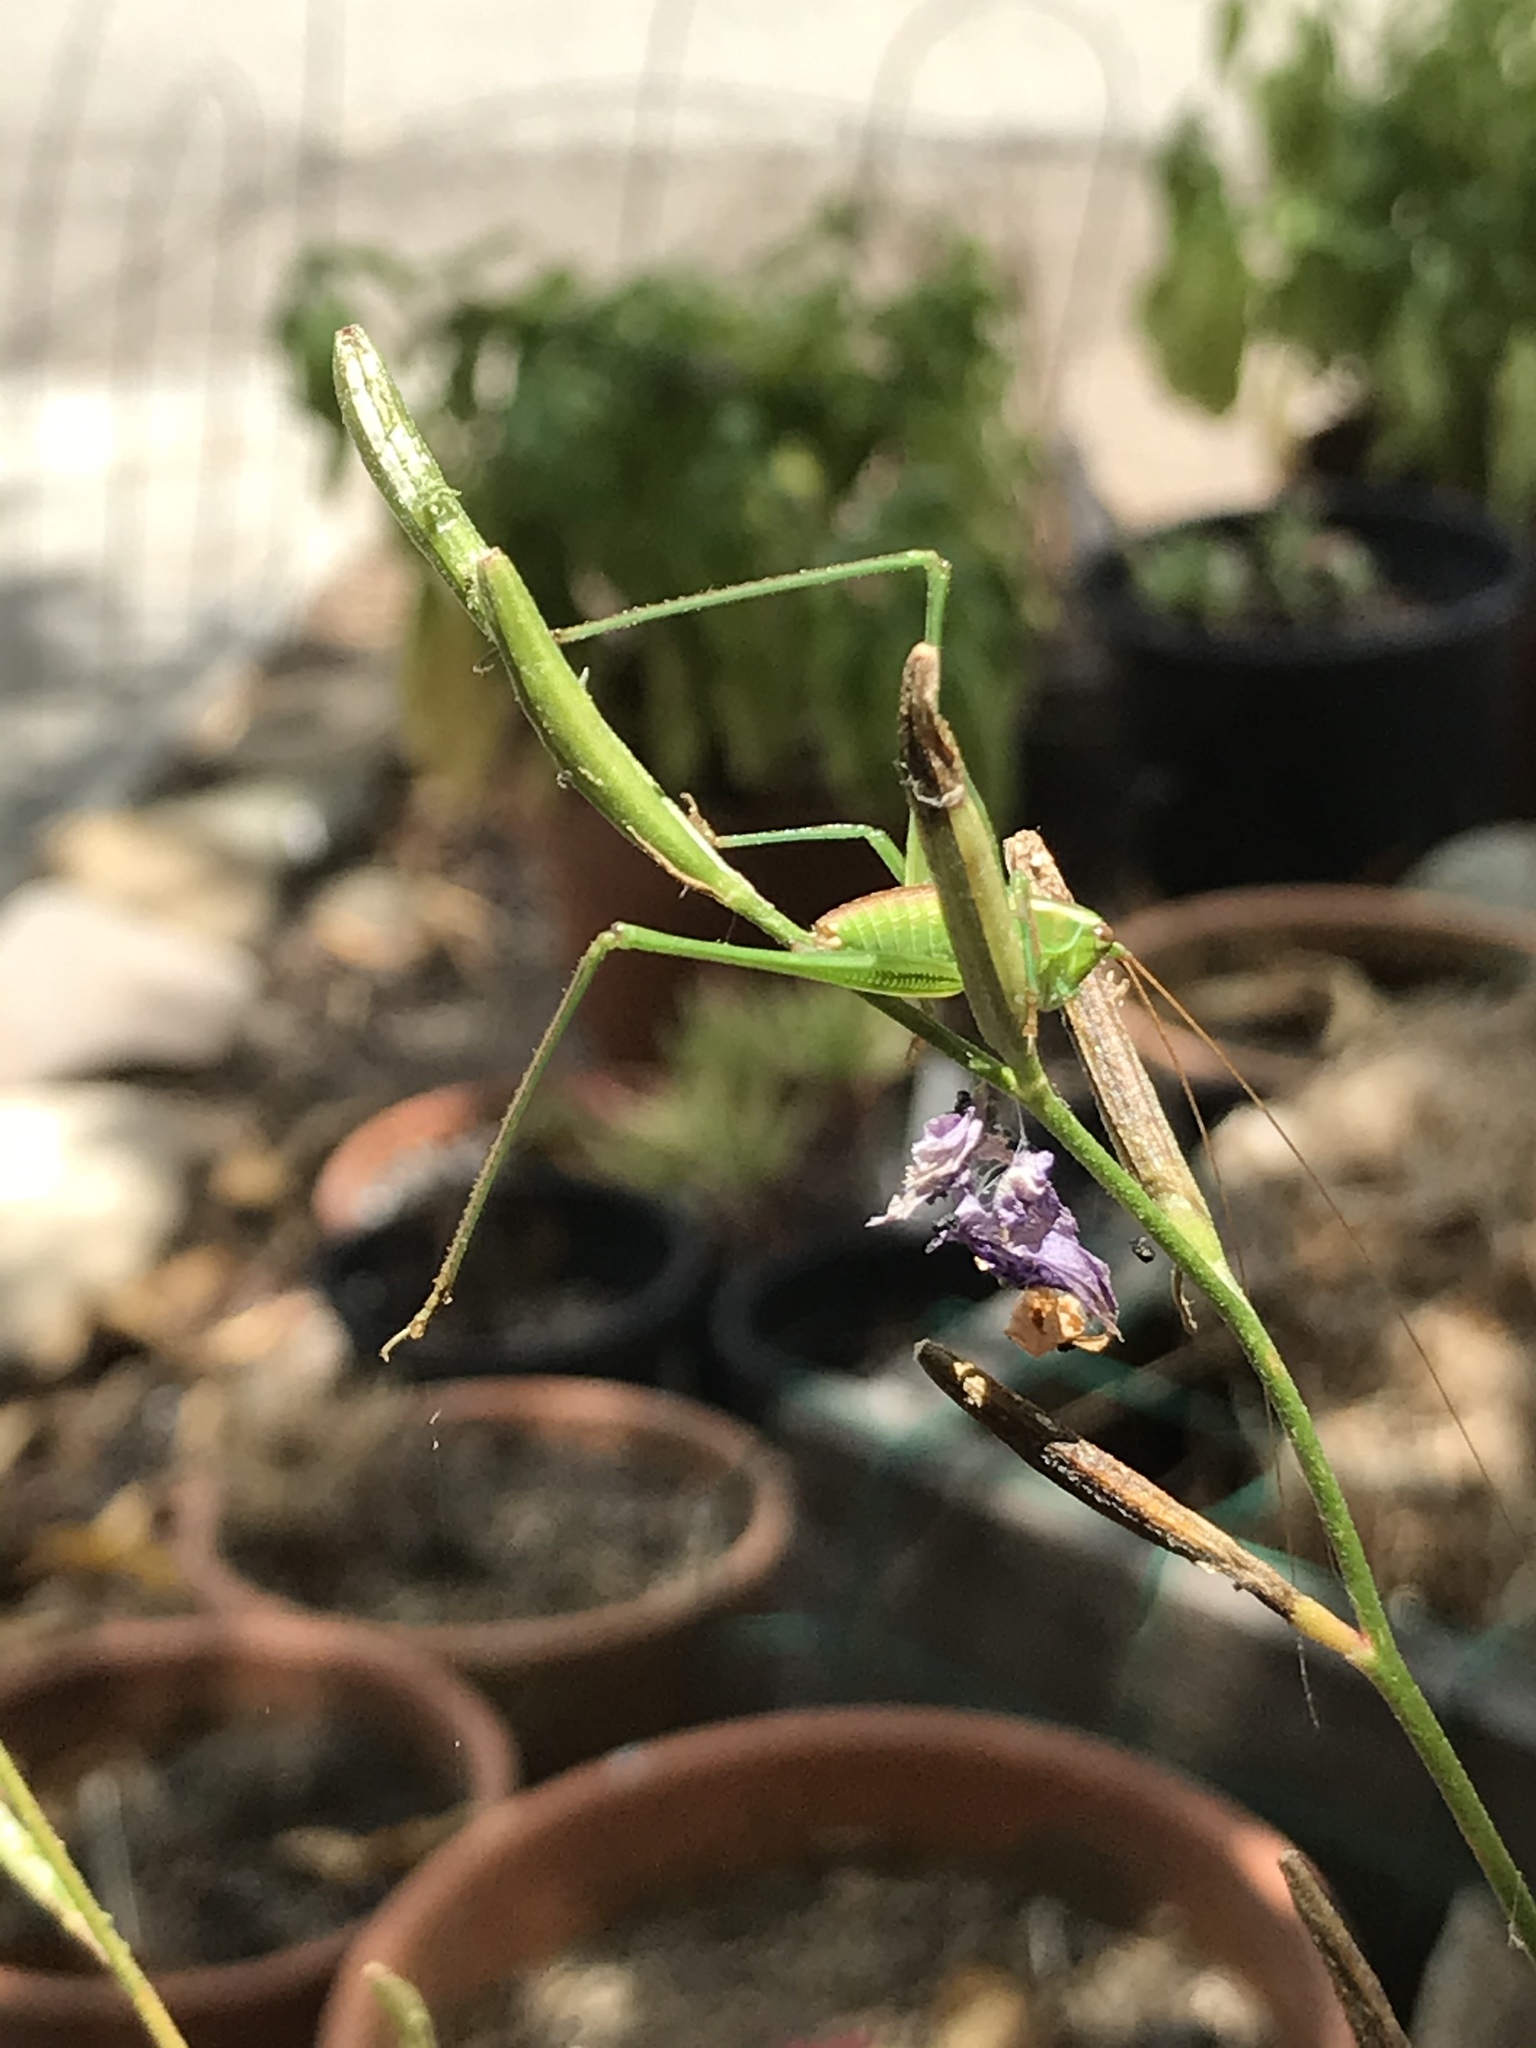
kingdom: Animalia
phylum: Arthropoda
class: Insecta
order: Orthoptera
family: Tettigoniidae
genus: Scudderia
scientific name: Scudderia
